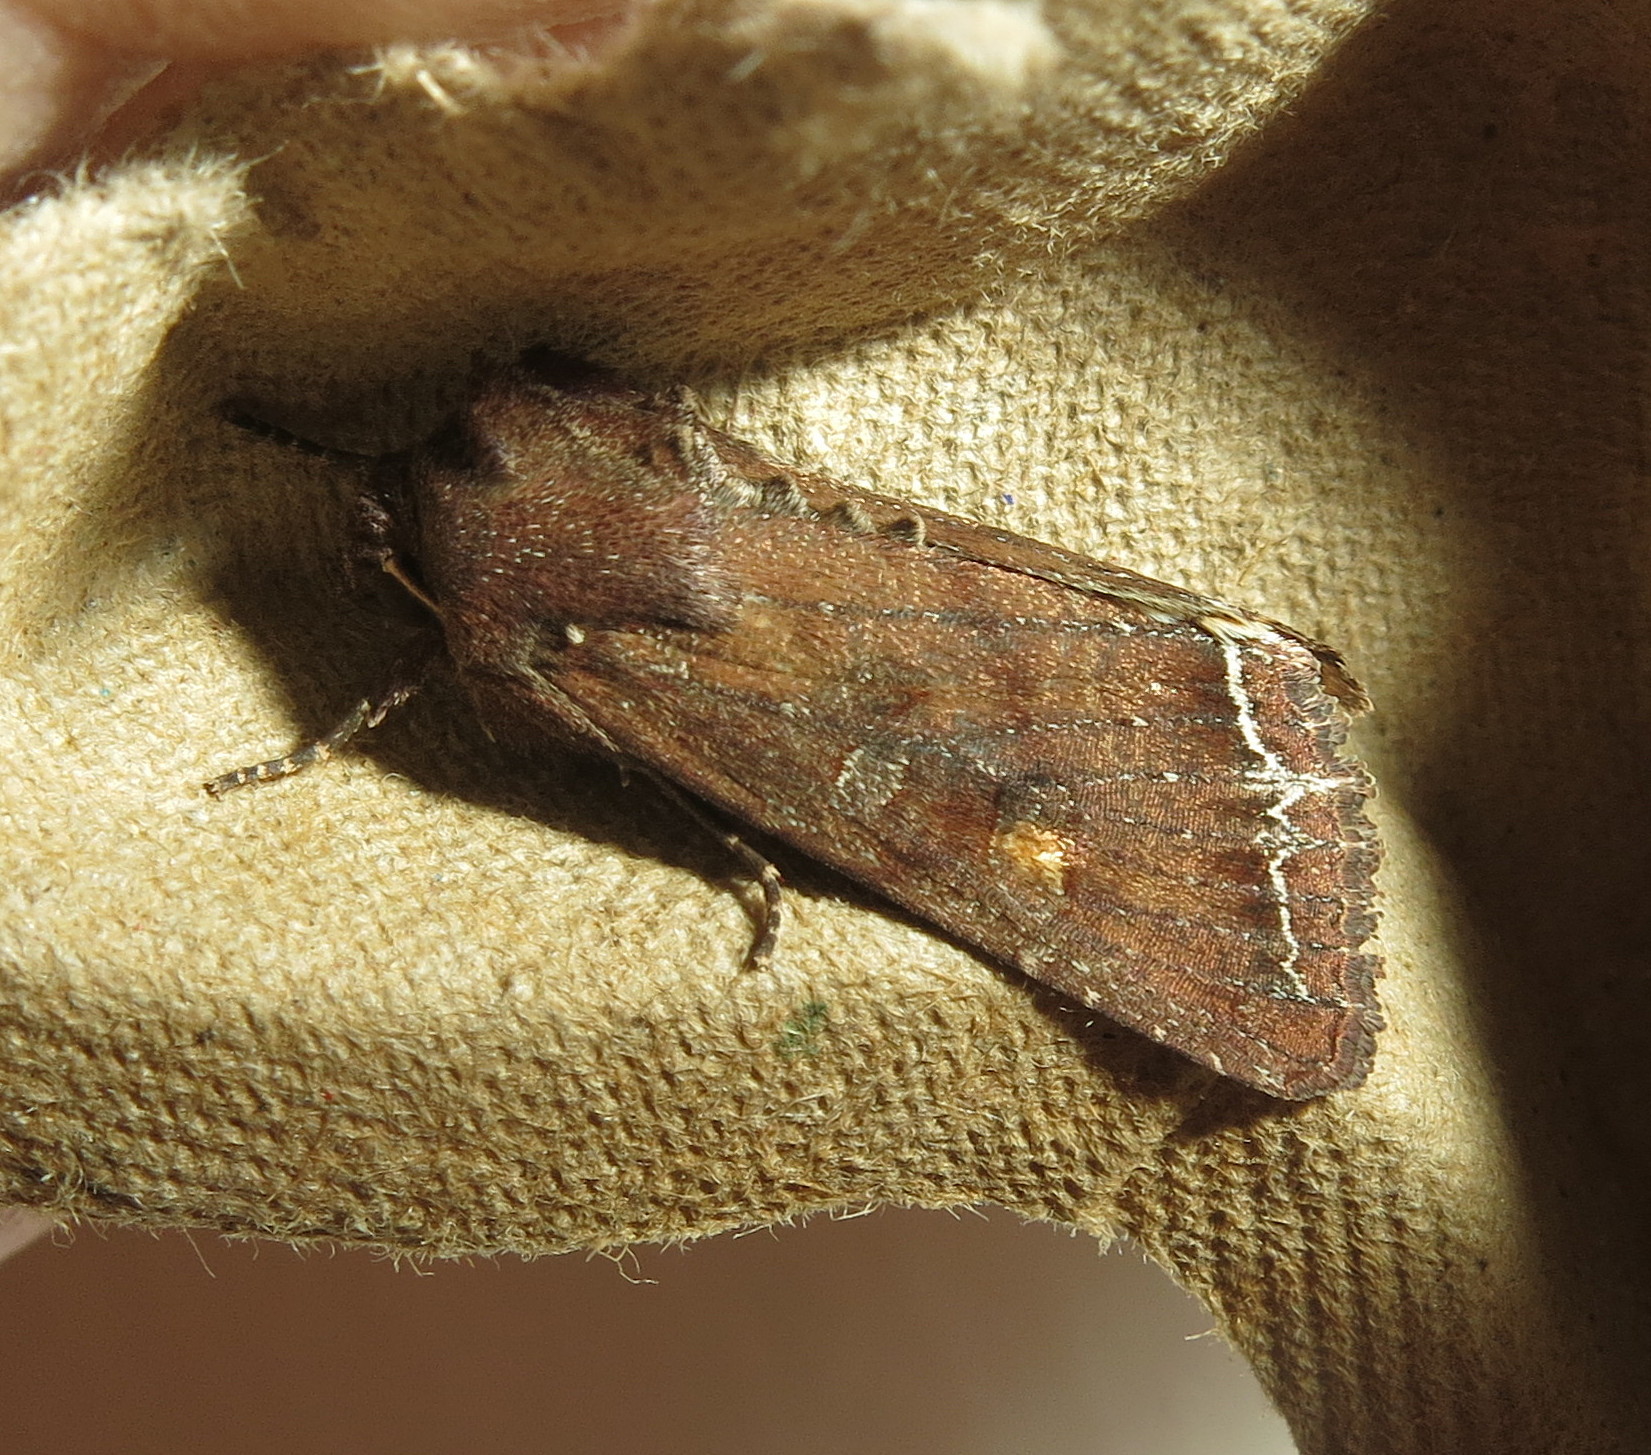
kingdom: Animalia
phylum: Arthropoda
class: Insecta
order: Lepidoptera
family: Noctuidae
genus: Lacanobia
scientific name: Lacanobia oleracea
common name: Bright-line brown-eye
